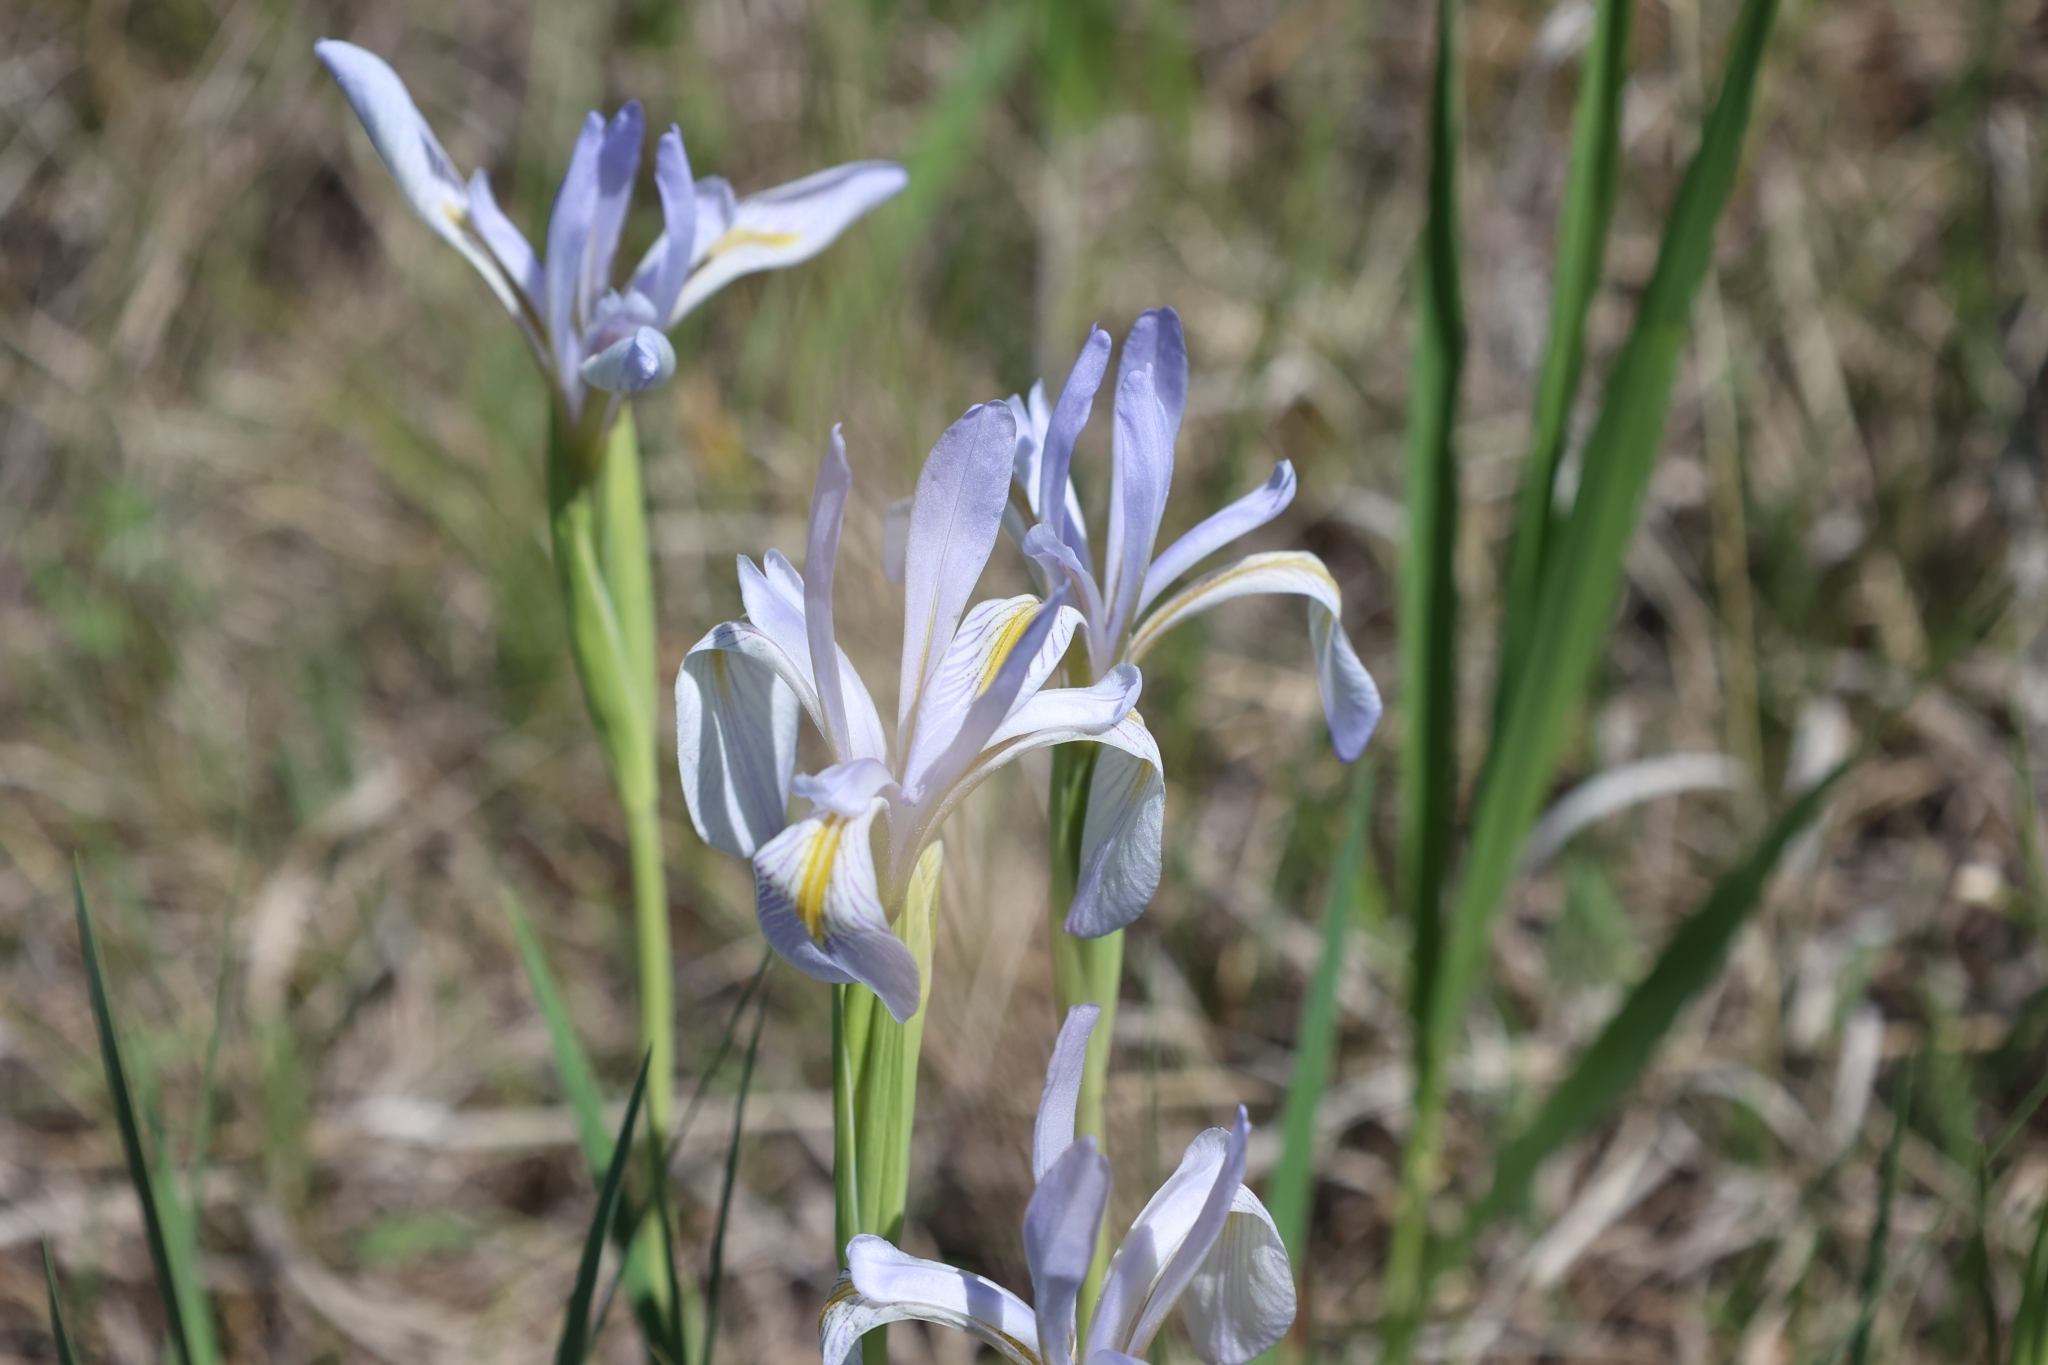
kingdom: Plantae
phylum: Tracheophyta
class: Liliopsida
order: Asparagales
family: Iridaceae
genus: Iris
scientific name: Iris missouriensis
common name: Rocky mountain iris
